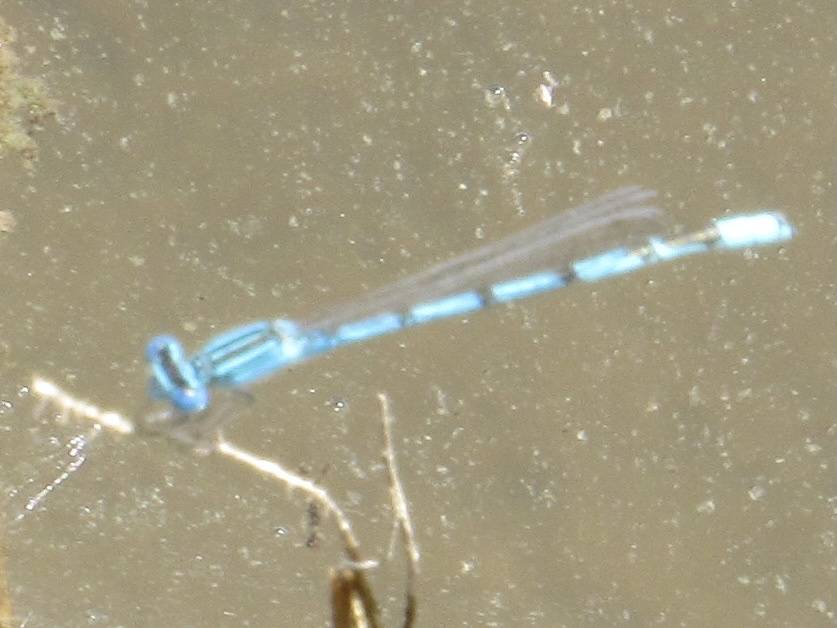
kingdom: Animalia
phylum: Arthropoda
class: Insecta
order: Odonata
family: Coenagrionidae
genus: Enallagma
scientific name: Enallagma basidens
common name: Double-striped bluet
